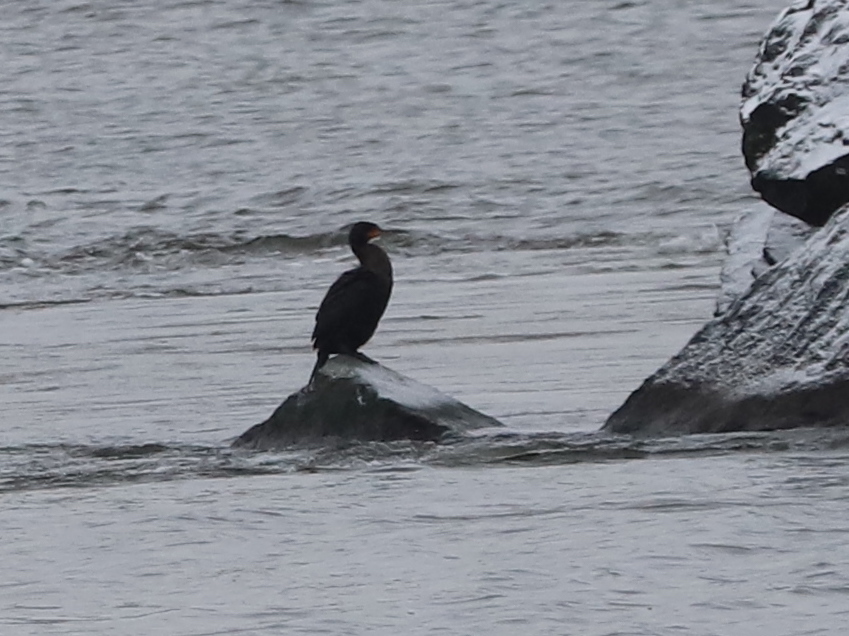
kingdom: Animalia
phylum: Chordata
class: Aves
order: Suliformes
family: Phalacrocoracidae
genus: Phalacrocorax
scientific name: Phalacrocorax auritus
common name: Double-crested cormorant
